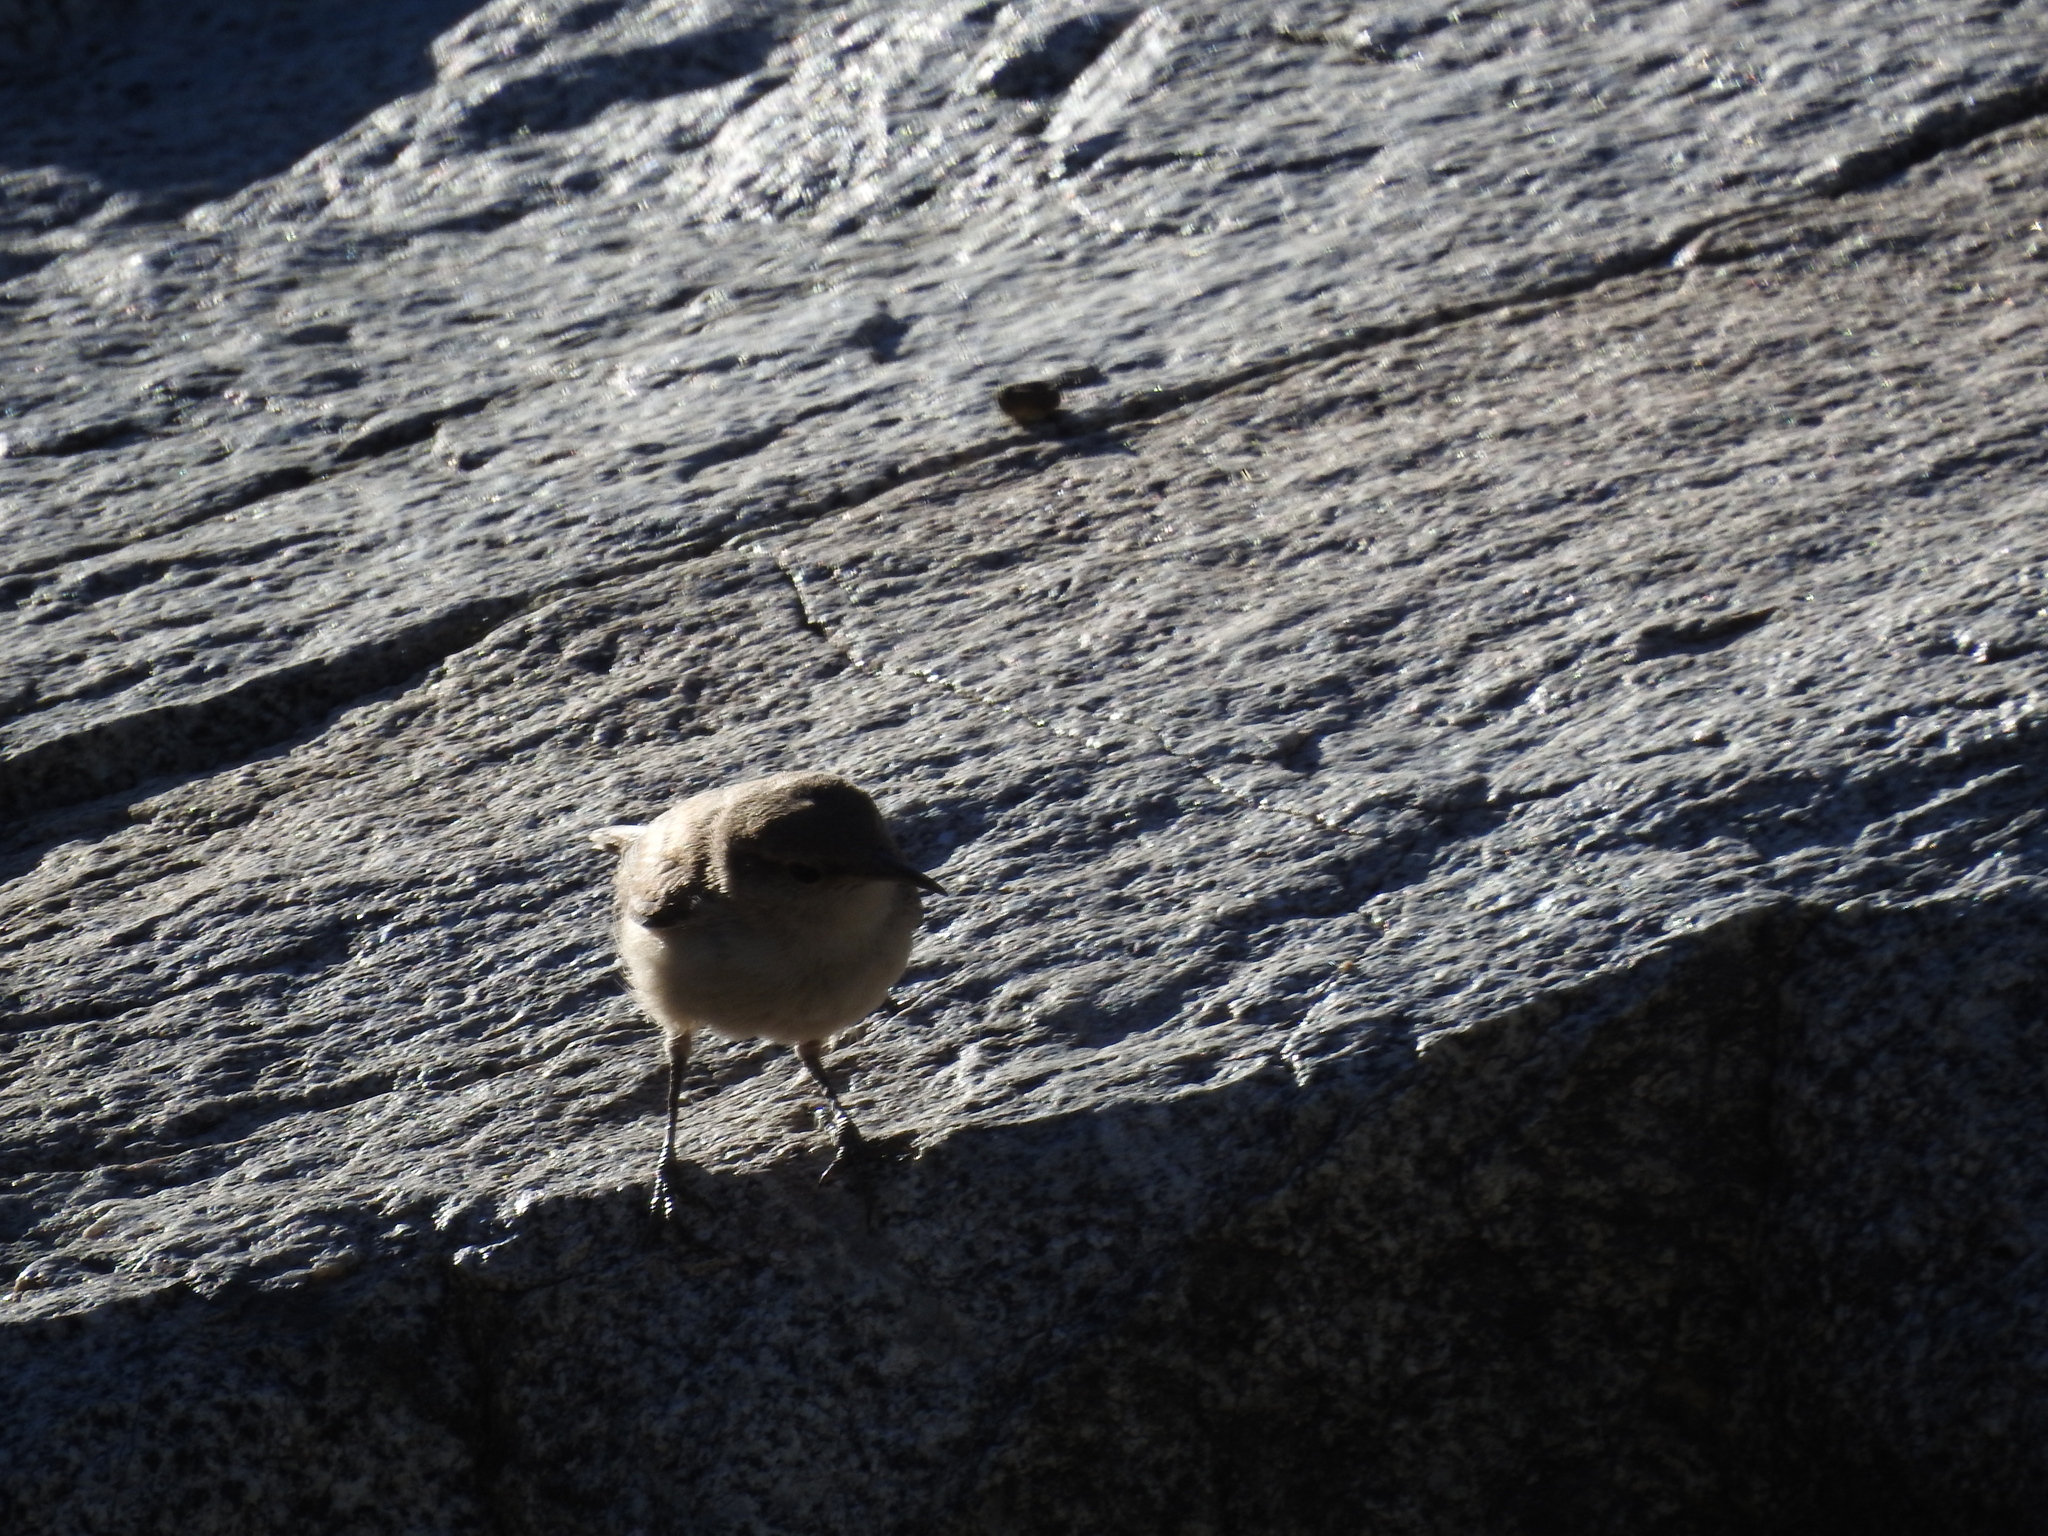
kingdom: Animalia
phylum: Chordata
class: Aves
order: Passeriformes
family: Troglodytidae
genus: Salpinctes
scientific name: Salpinctes obsoletus
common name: Rock wren
